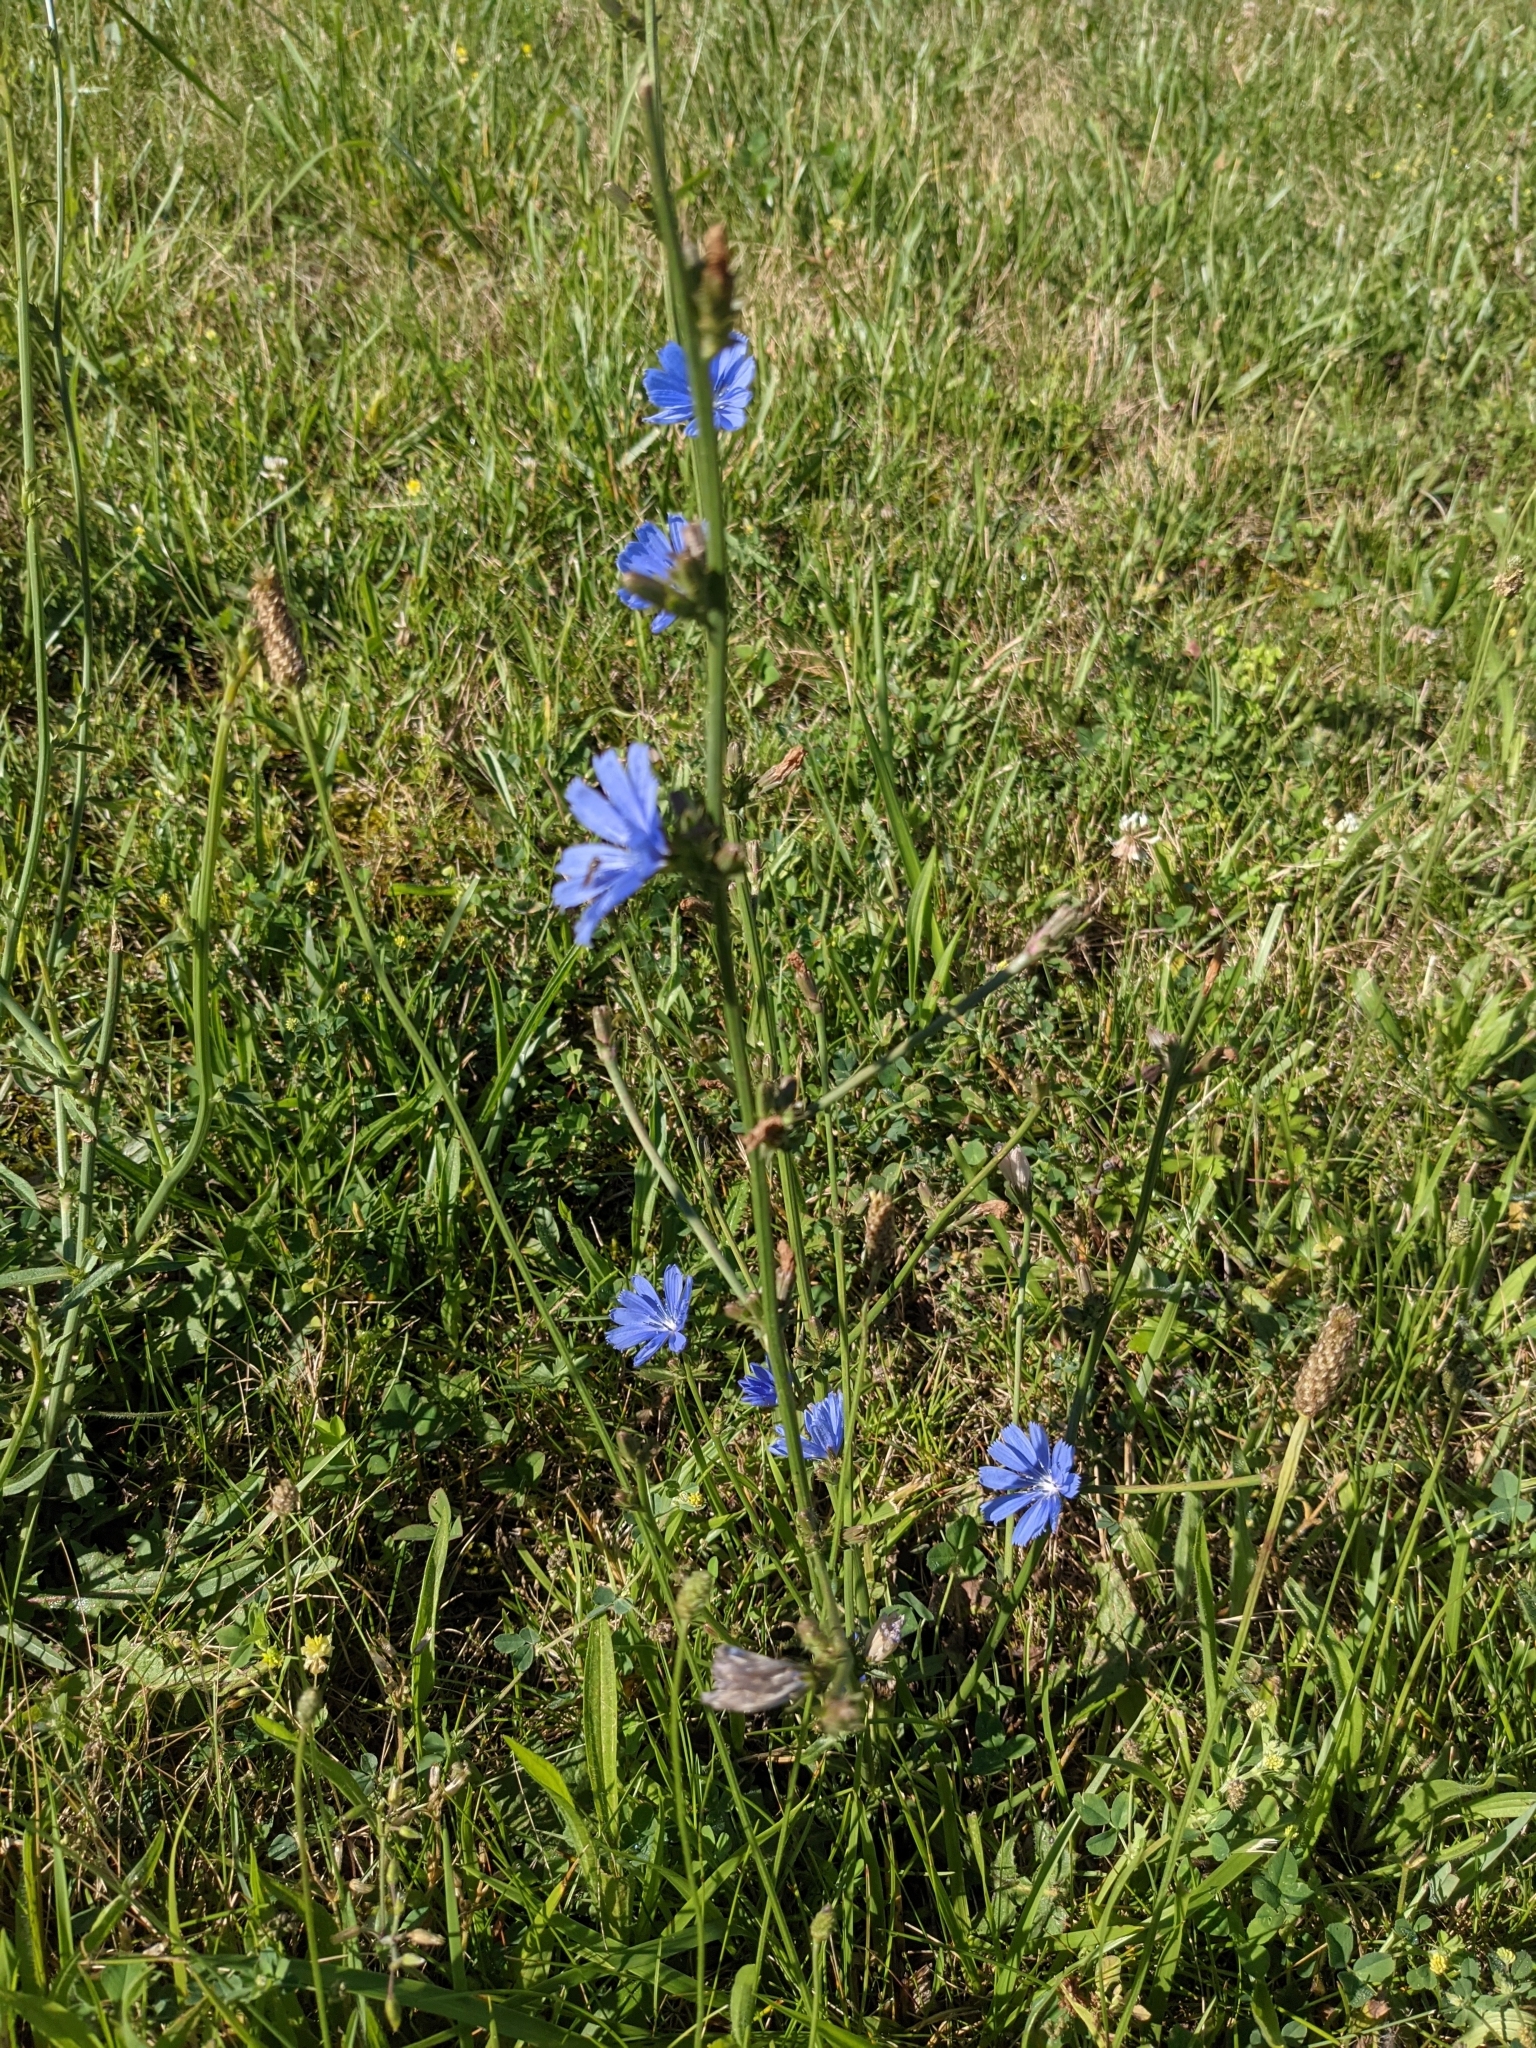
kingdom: Plantae
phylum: Tracheophyta
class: Magnoliopsida
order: Asterales
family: Asteraceae
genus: Cichorium
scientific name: Cichorium intybus
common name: Chicory
